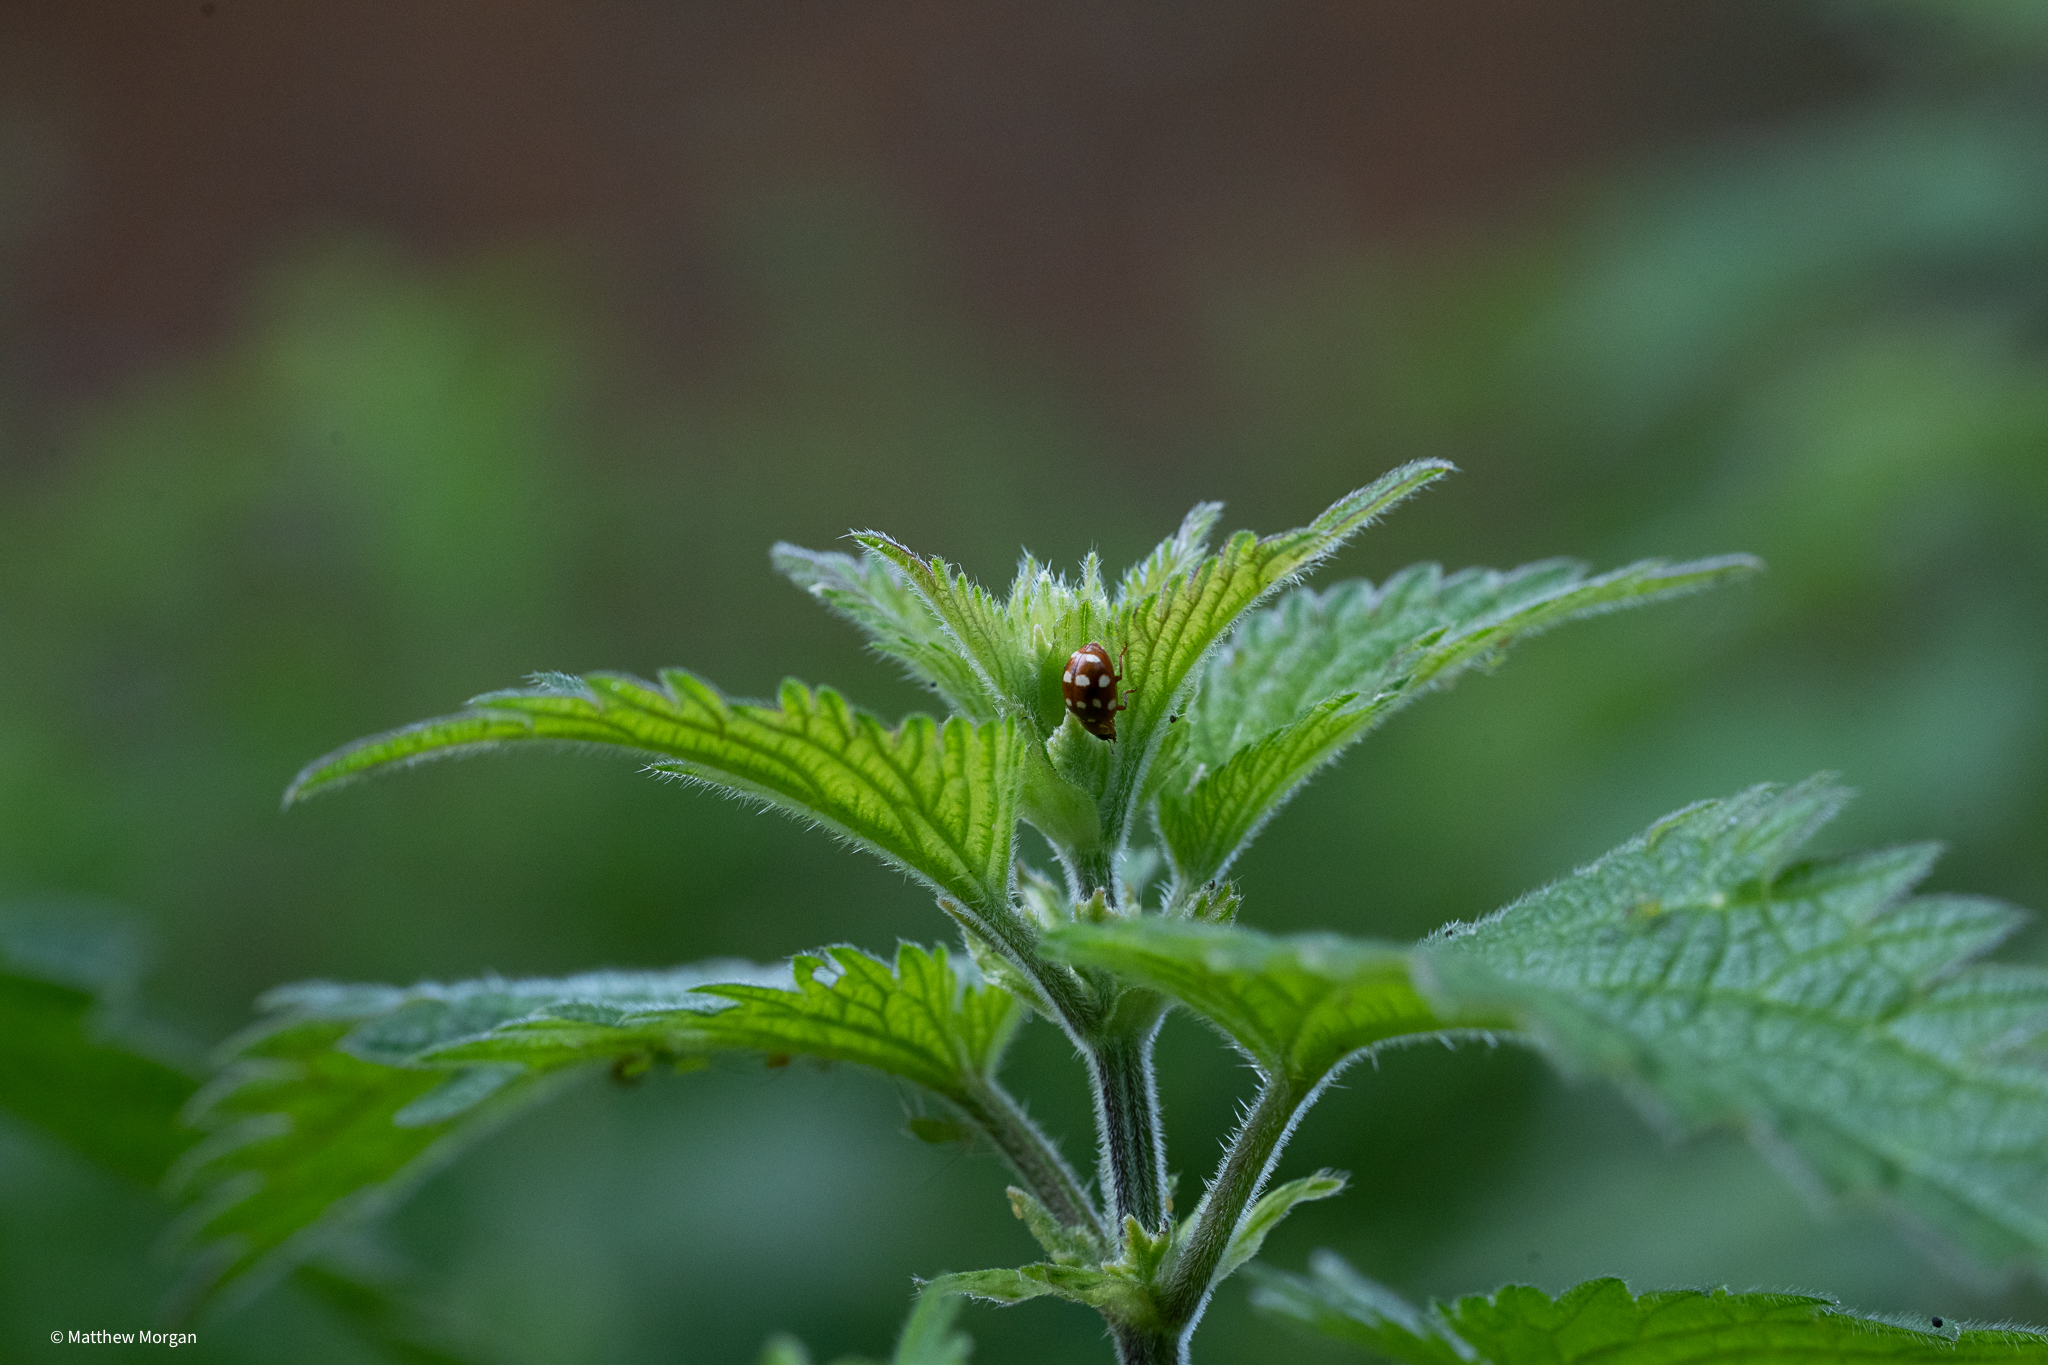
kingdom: Animalia
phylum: Arthropoda
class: Insecta
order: Coleoptera
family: Coccinellidae
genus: Calvia
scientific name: Calvia quatuordecimguttata
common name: Cream-spot ladybird
